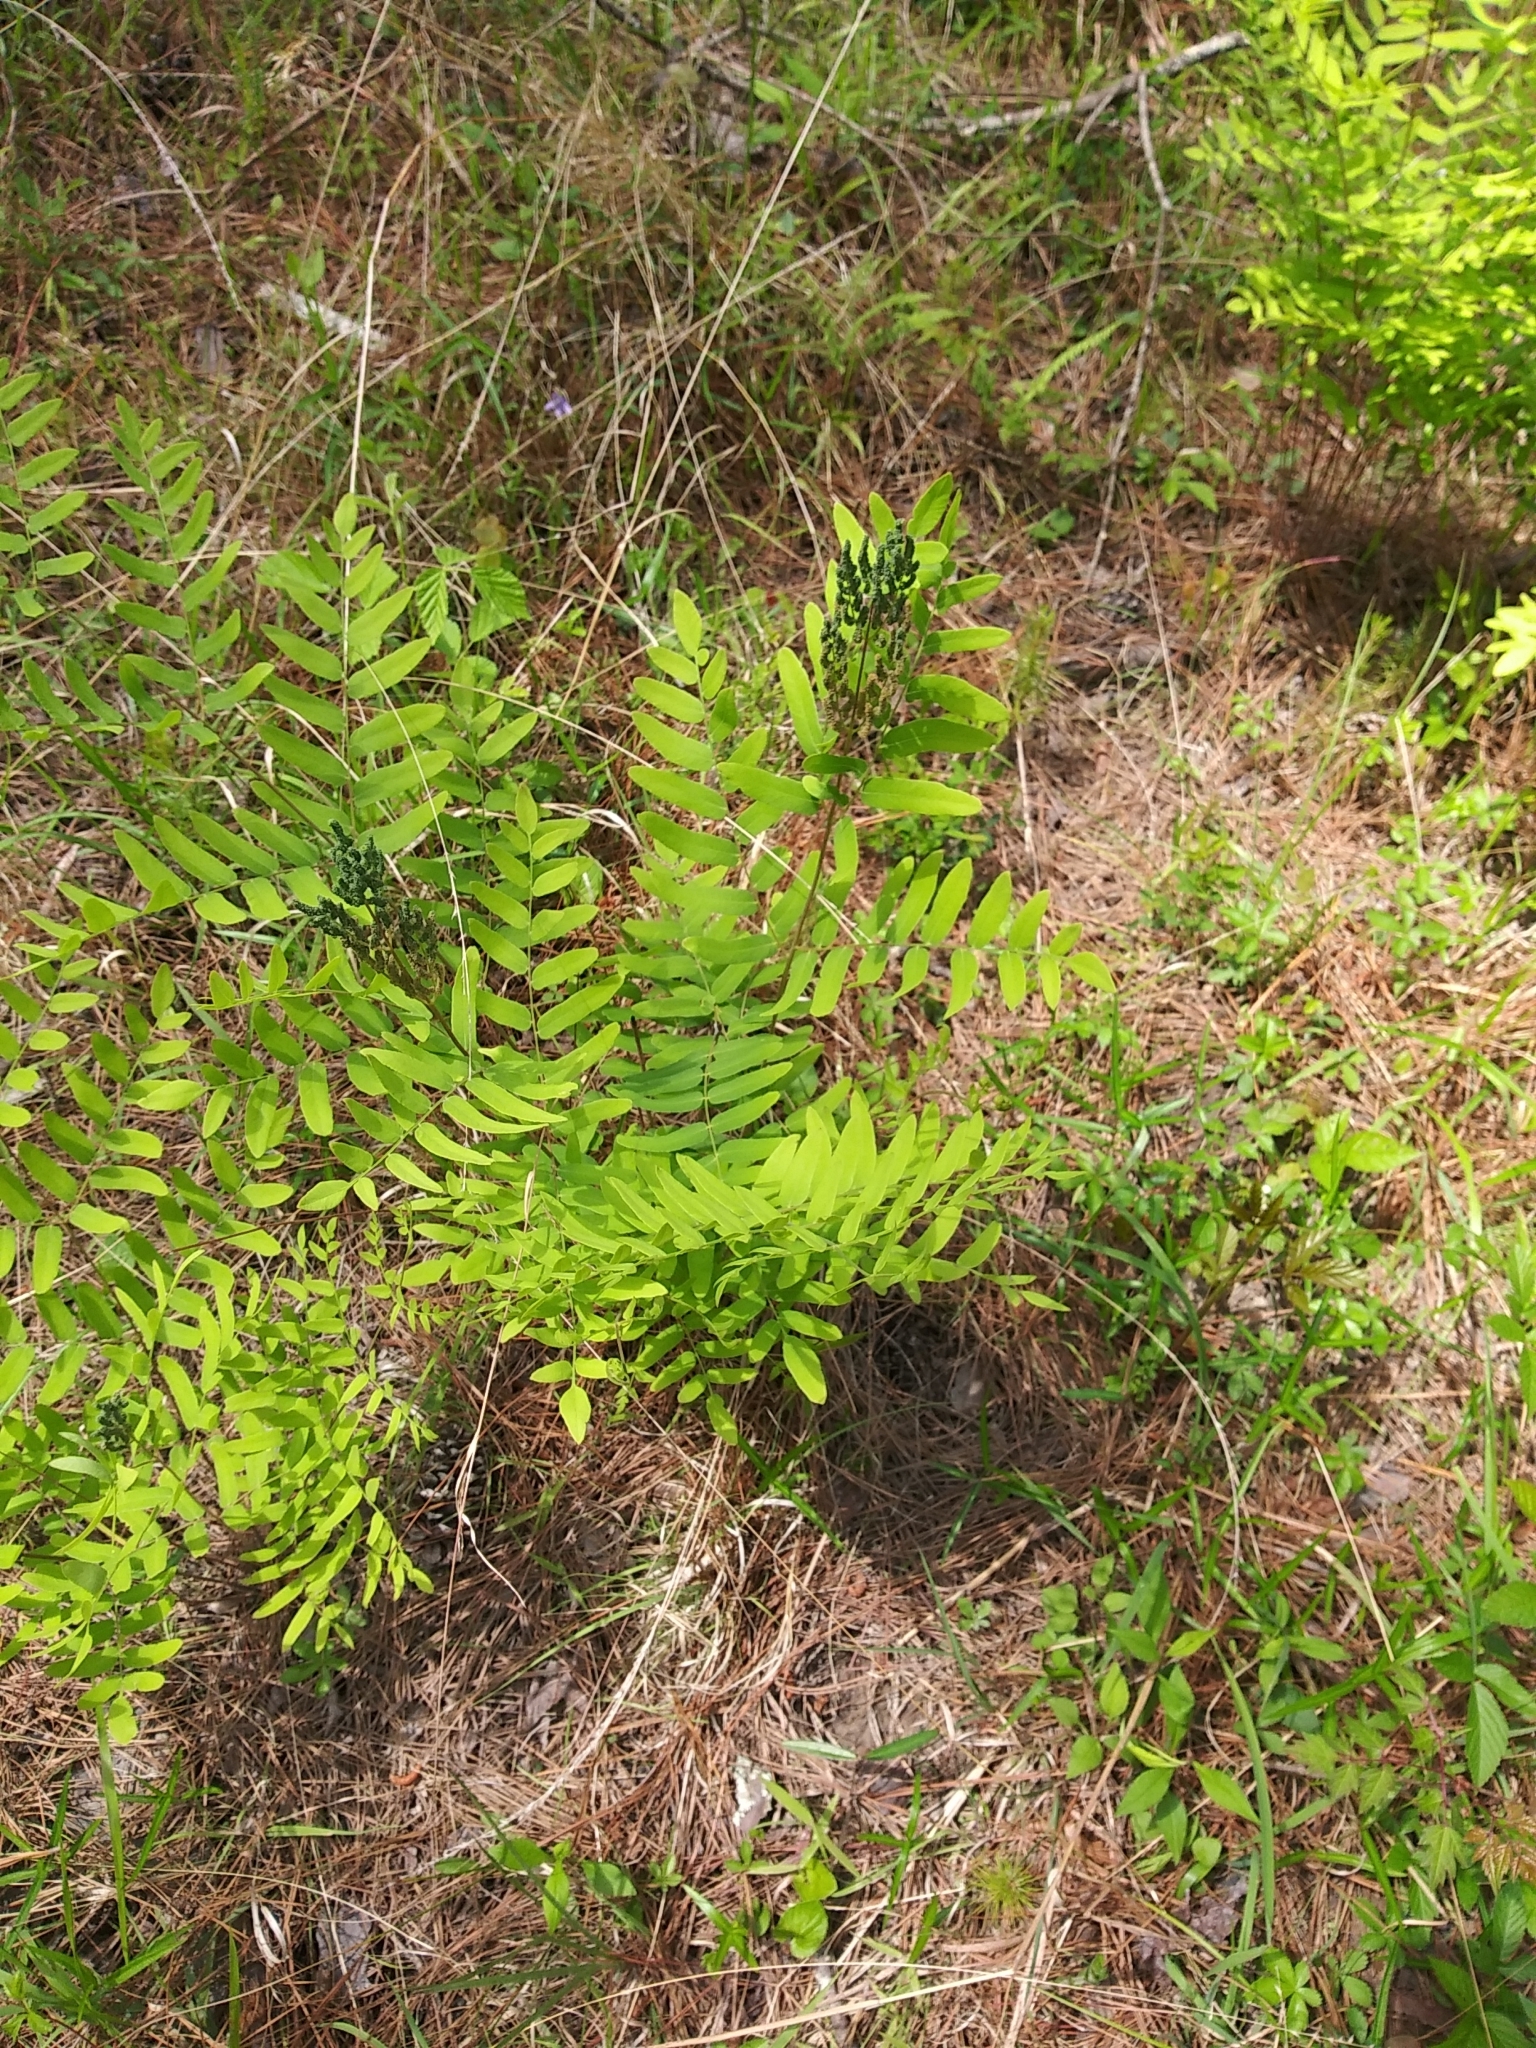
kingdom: Plantae
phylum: Tracheophyta
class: Polypodiopsida
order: Osmundales
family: Osmundaceae
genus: Osmunda
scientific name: Osmunda spectabilis
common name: American royal fern
